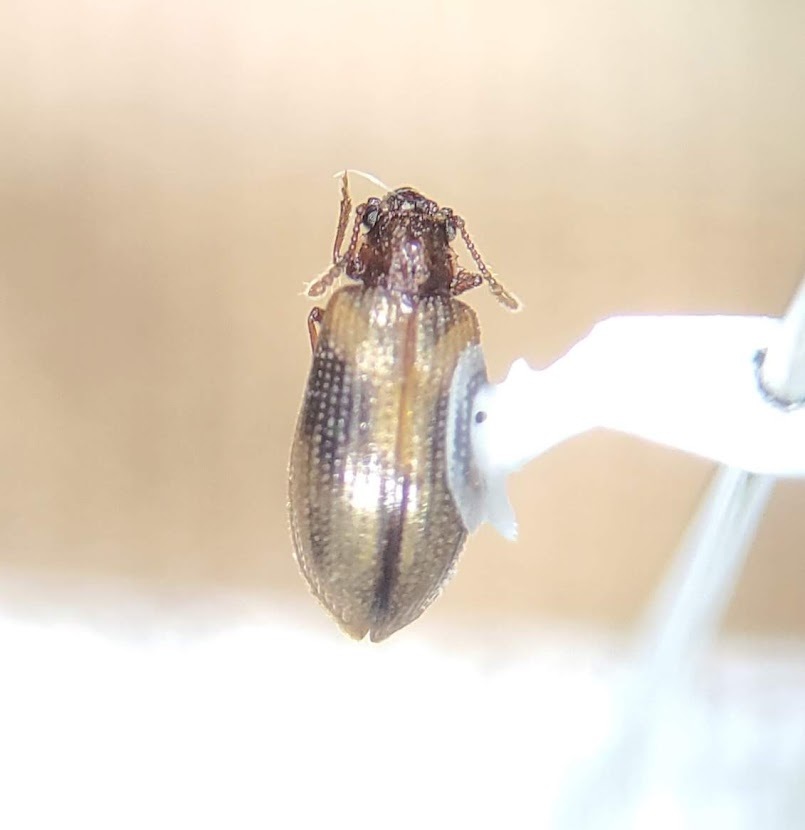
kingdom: Animalia
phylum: Arthropoda
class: Insecta
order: Coleoptera
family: Derodontidae
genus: Derodontus
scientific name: Derodontus trisignatus
